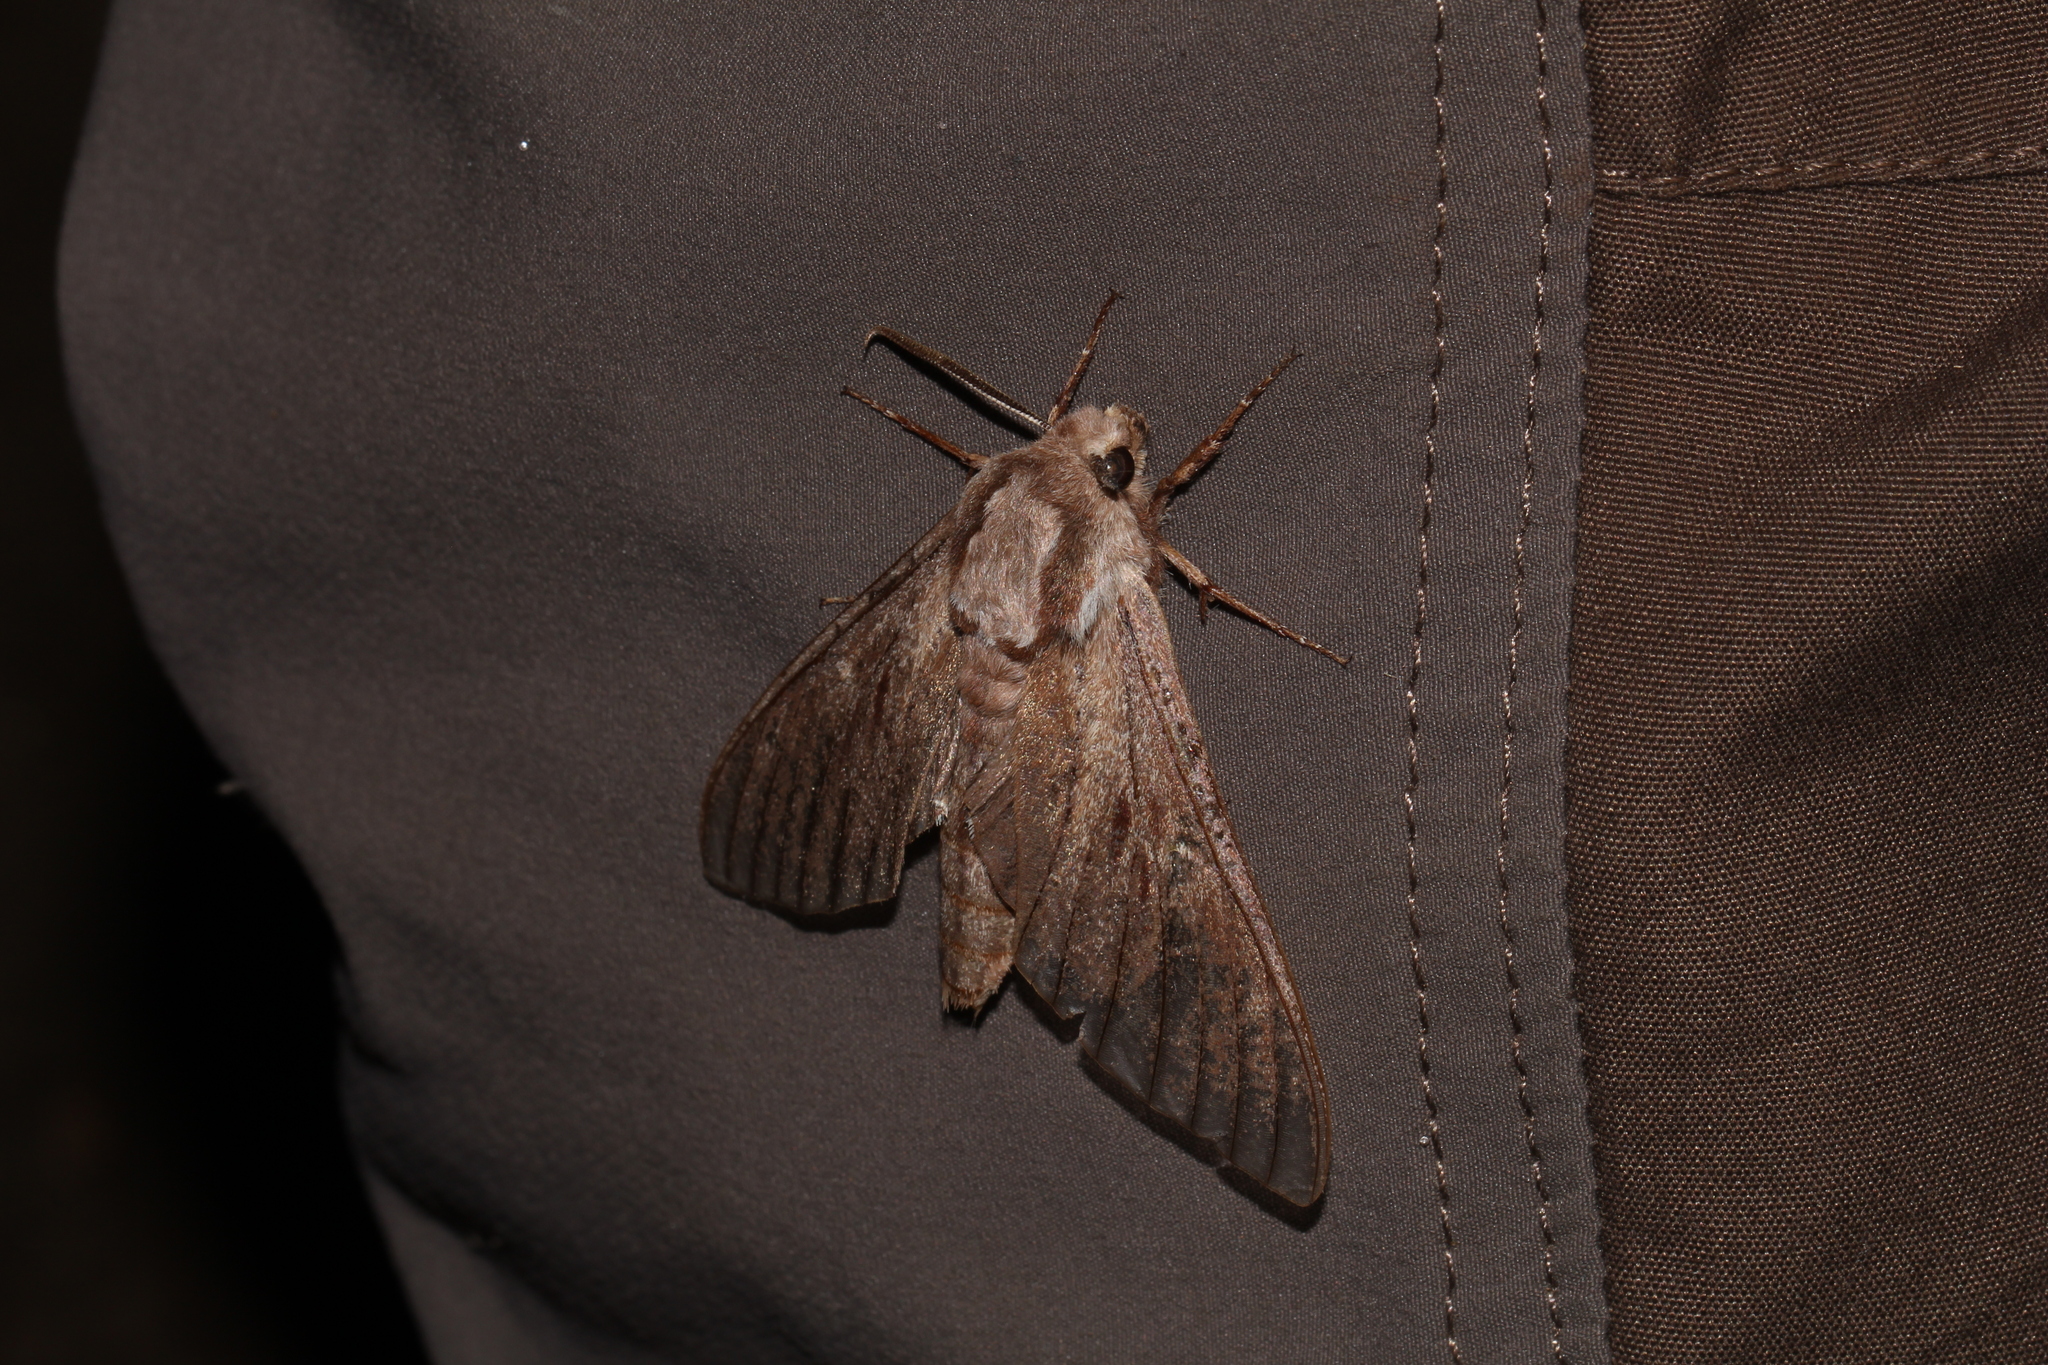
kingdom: Animalia
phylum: Arthropoda
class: Insecta
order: Lepidoptera
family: Sphingidae
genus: Sphinx
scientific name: Sphinx pinastri
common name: Pine hawk-moth
